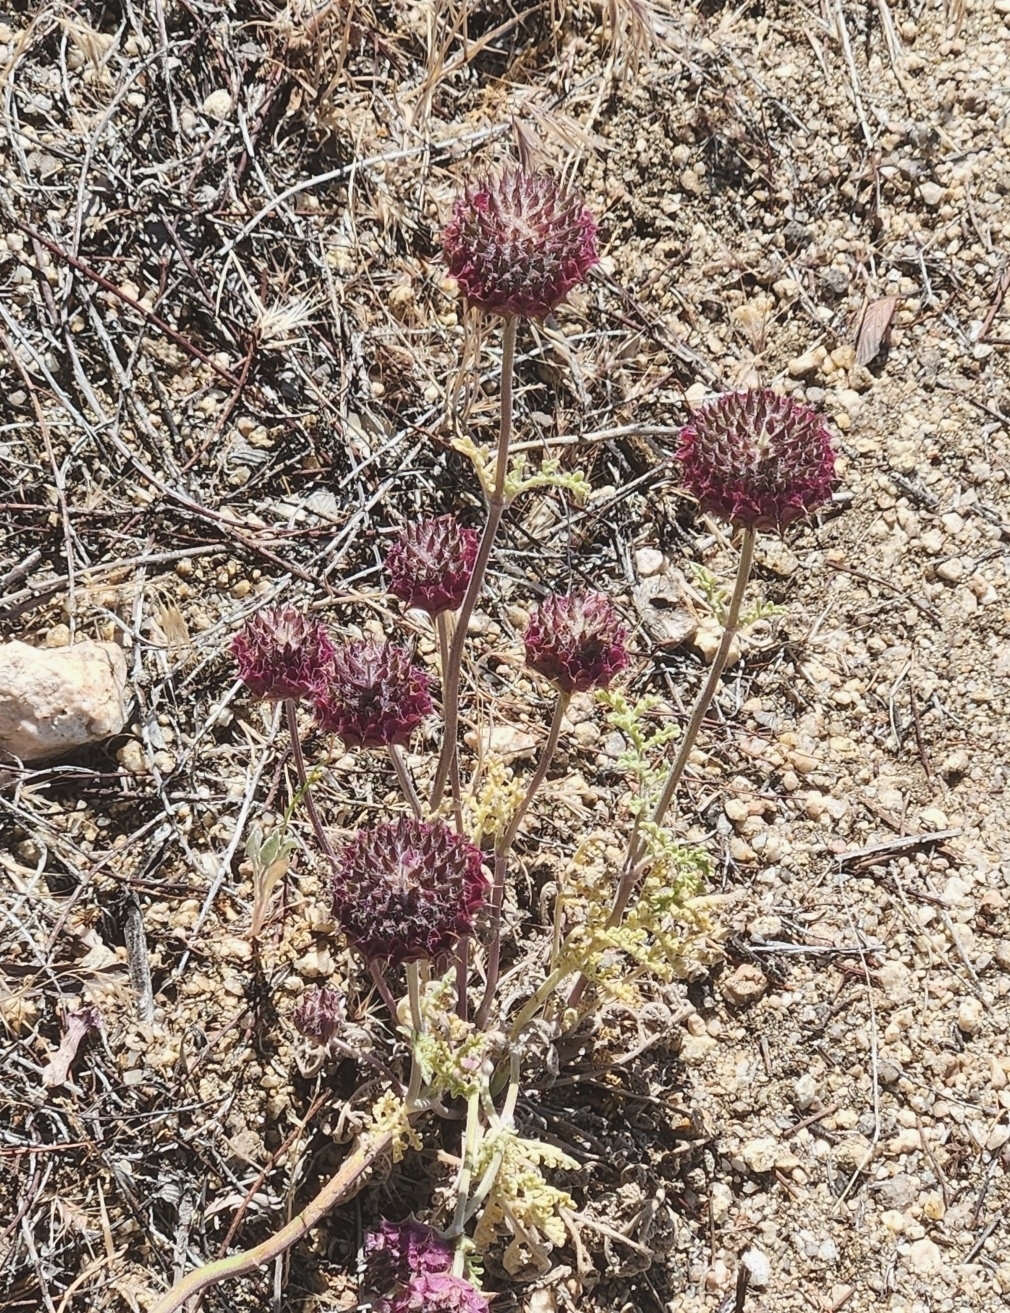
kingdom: Plantae
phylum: Tracheophyta
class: Magnoliopsida
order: Lamiales
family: Lamiaceae
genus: Salvia
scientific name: Salvia columbariae
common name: Chia
